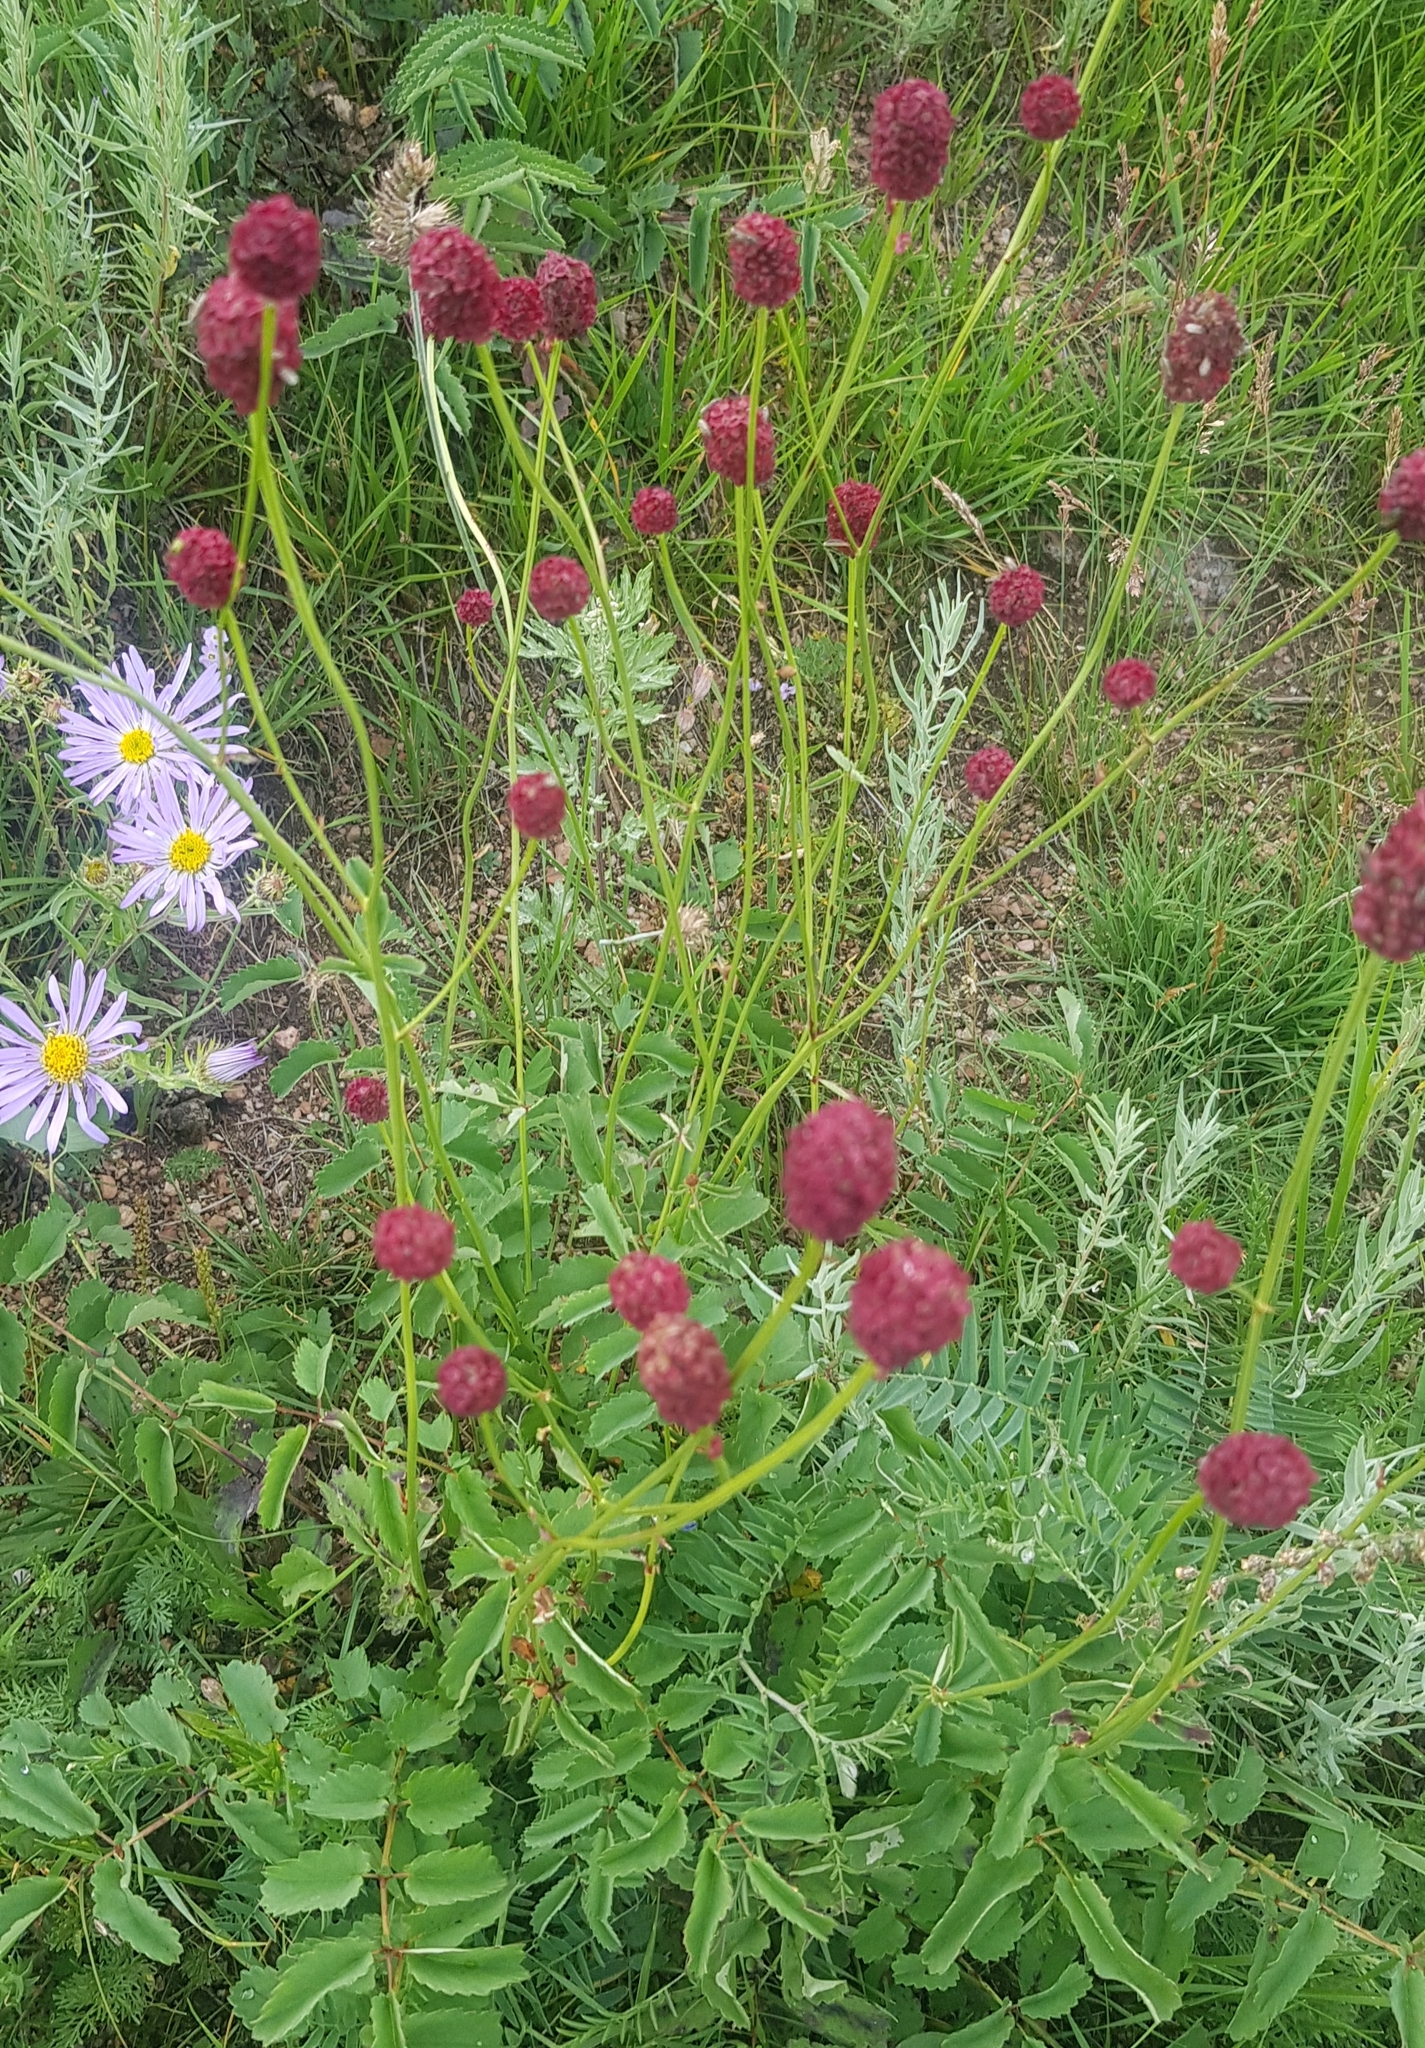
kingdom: Plantae
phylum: Tracheophyta
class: Magnoliopsida
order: Rosales
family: Rosaceae
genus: Sanguisorba
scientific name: Sanguisorba officinalis
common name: Great burnet
